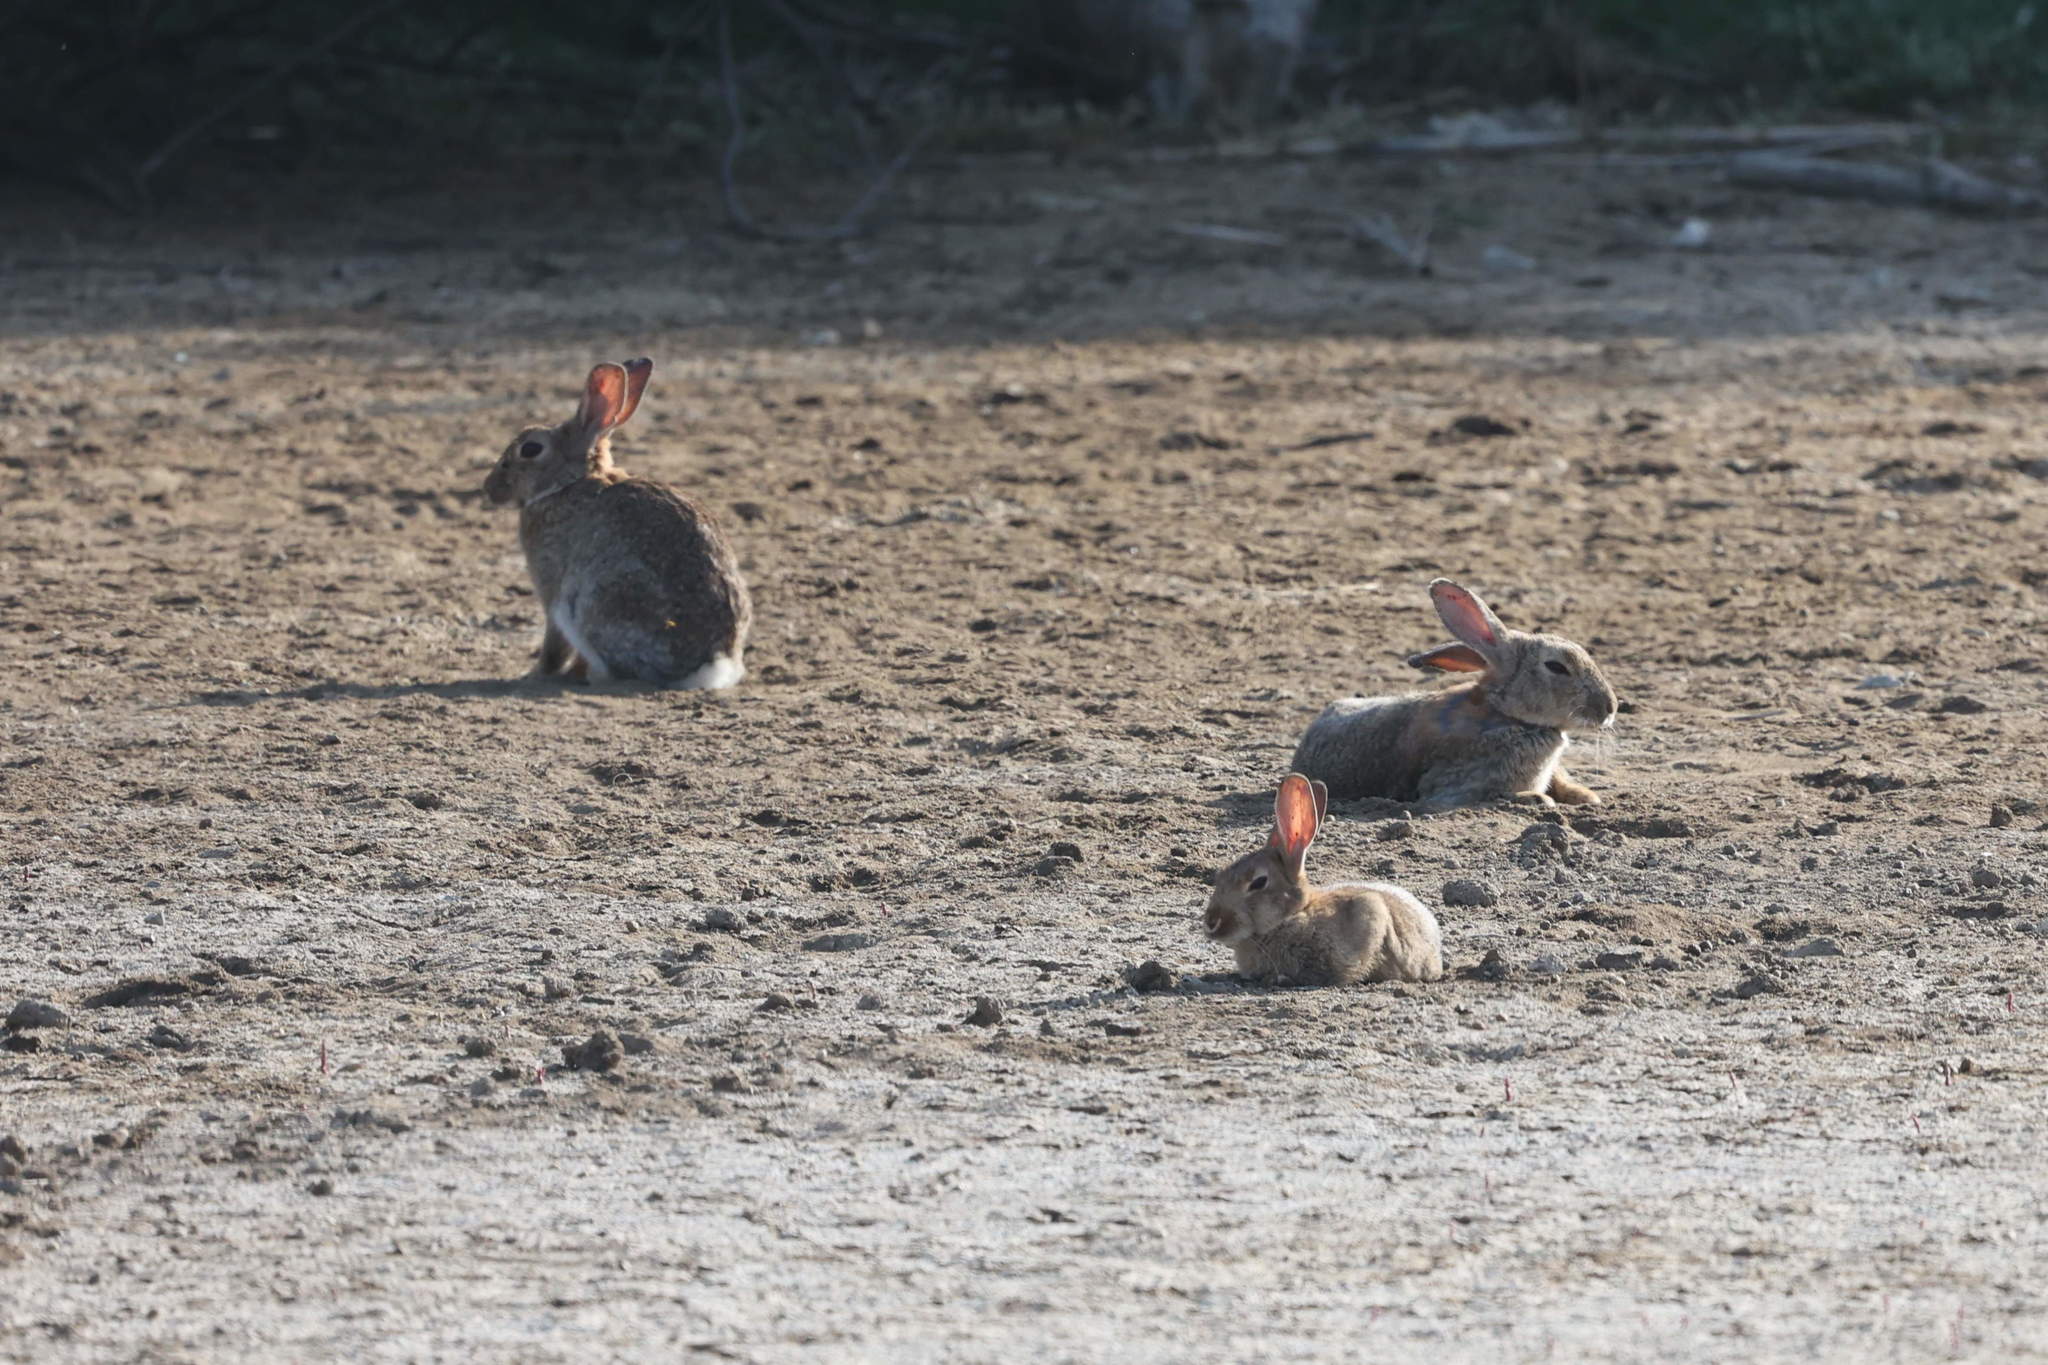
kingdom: Animalia
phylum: Chordata
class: Mammalia
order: Lagomorpha
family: Leporidae
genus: Oryctolagus
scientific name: Oryctolagus cuniculus
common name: European rabbit
